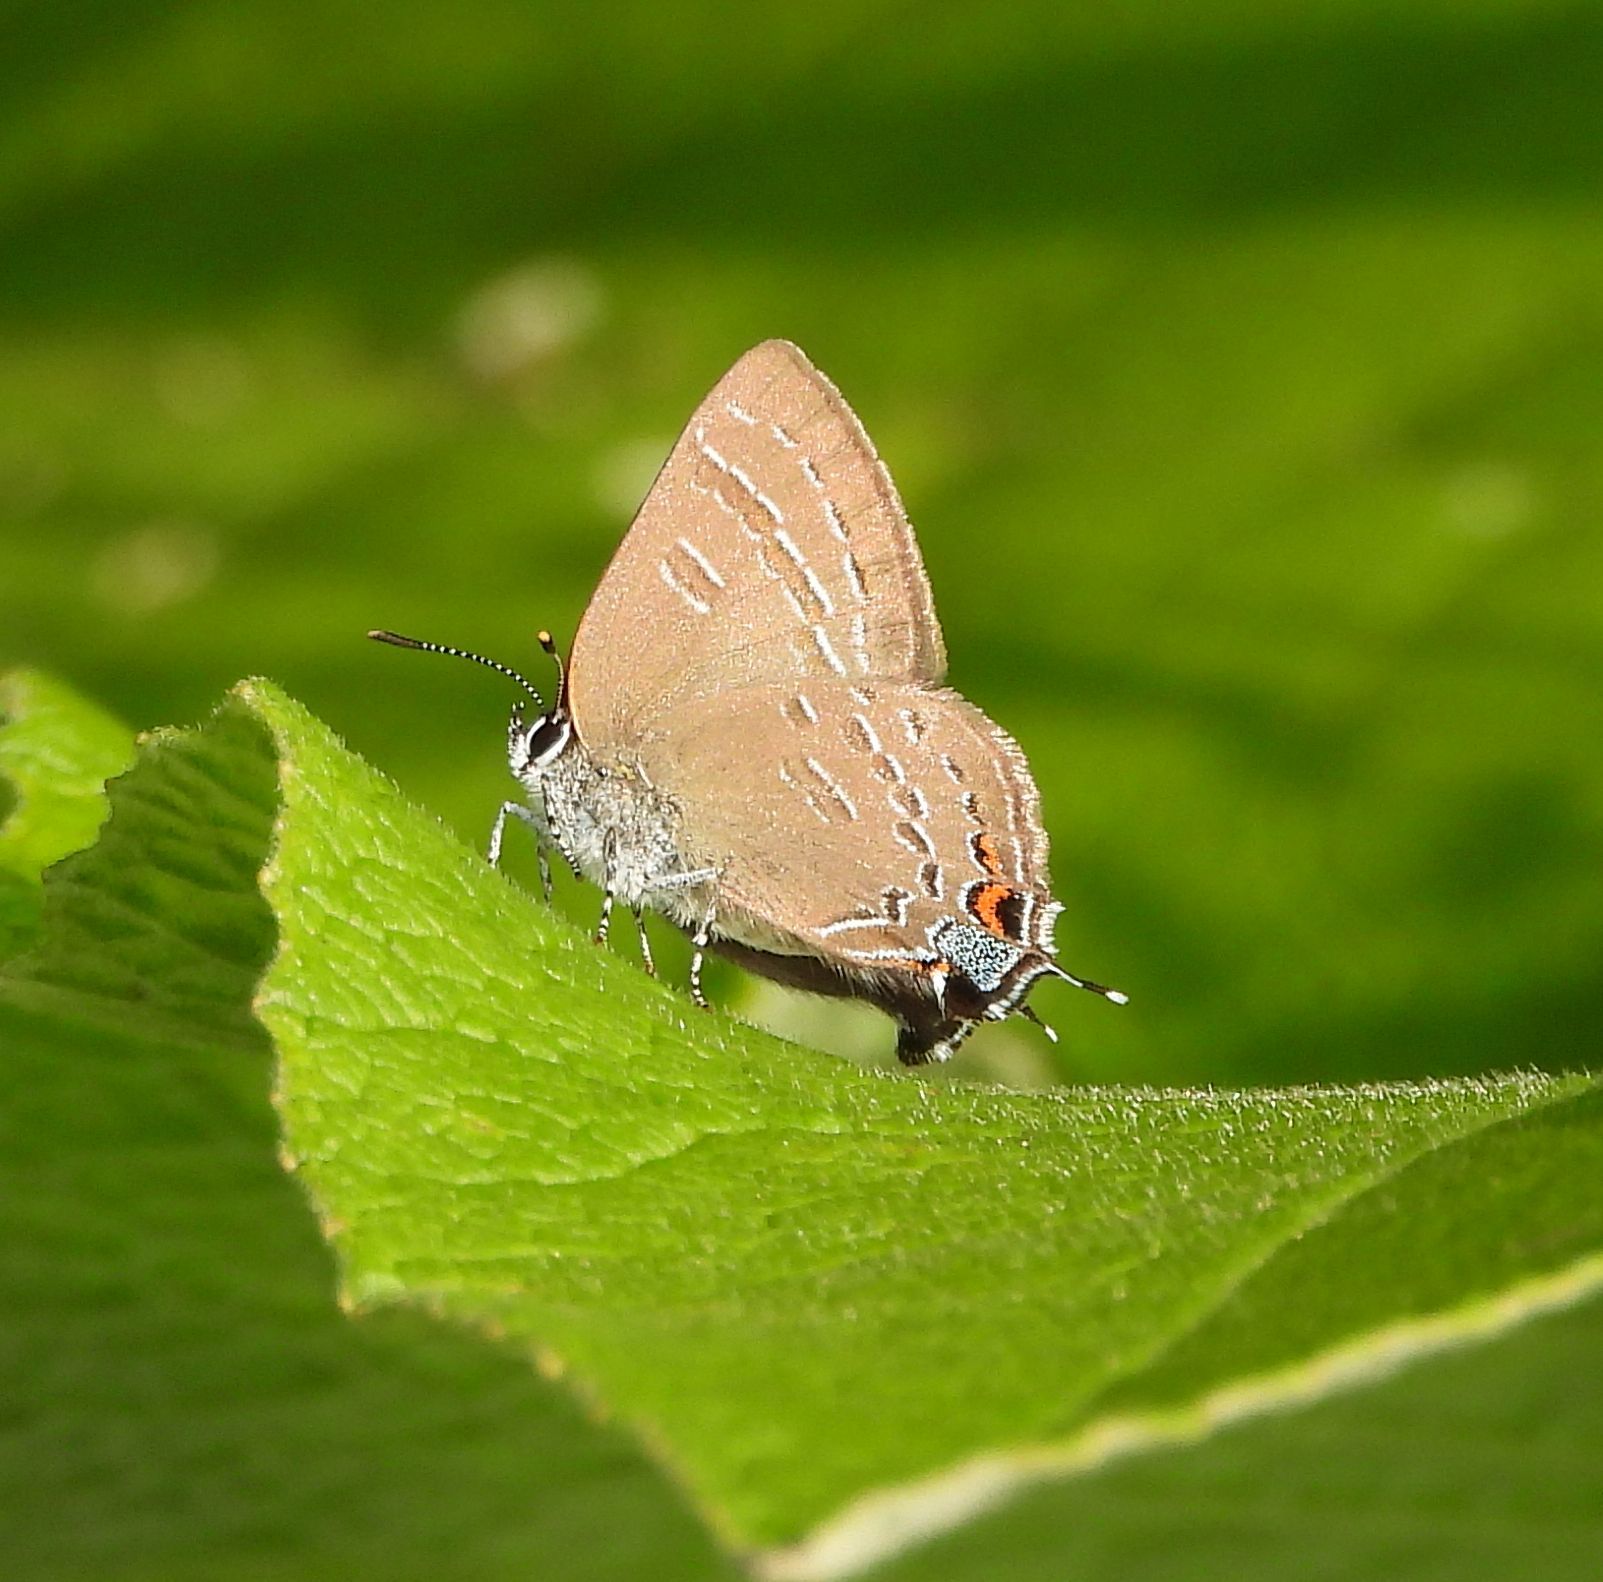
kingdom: Animalia
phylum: Arthropoda
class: Insecta
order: Lepidoptera
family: Lycaenidae
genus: Satyrium
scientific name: Satyrium calanus
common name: Banded hairstreak
